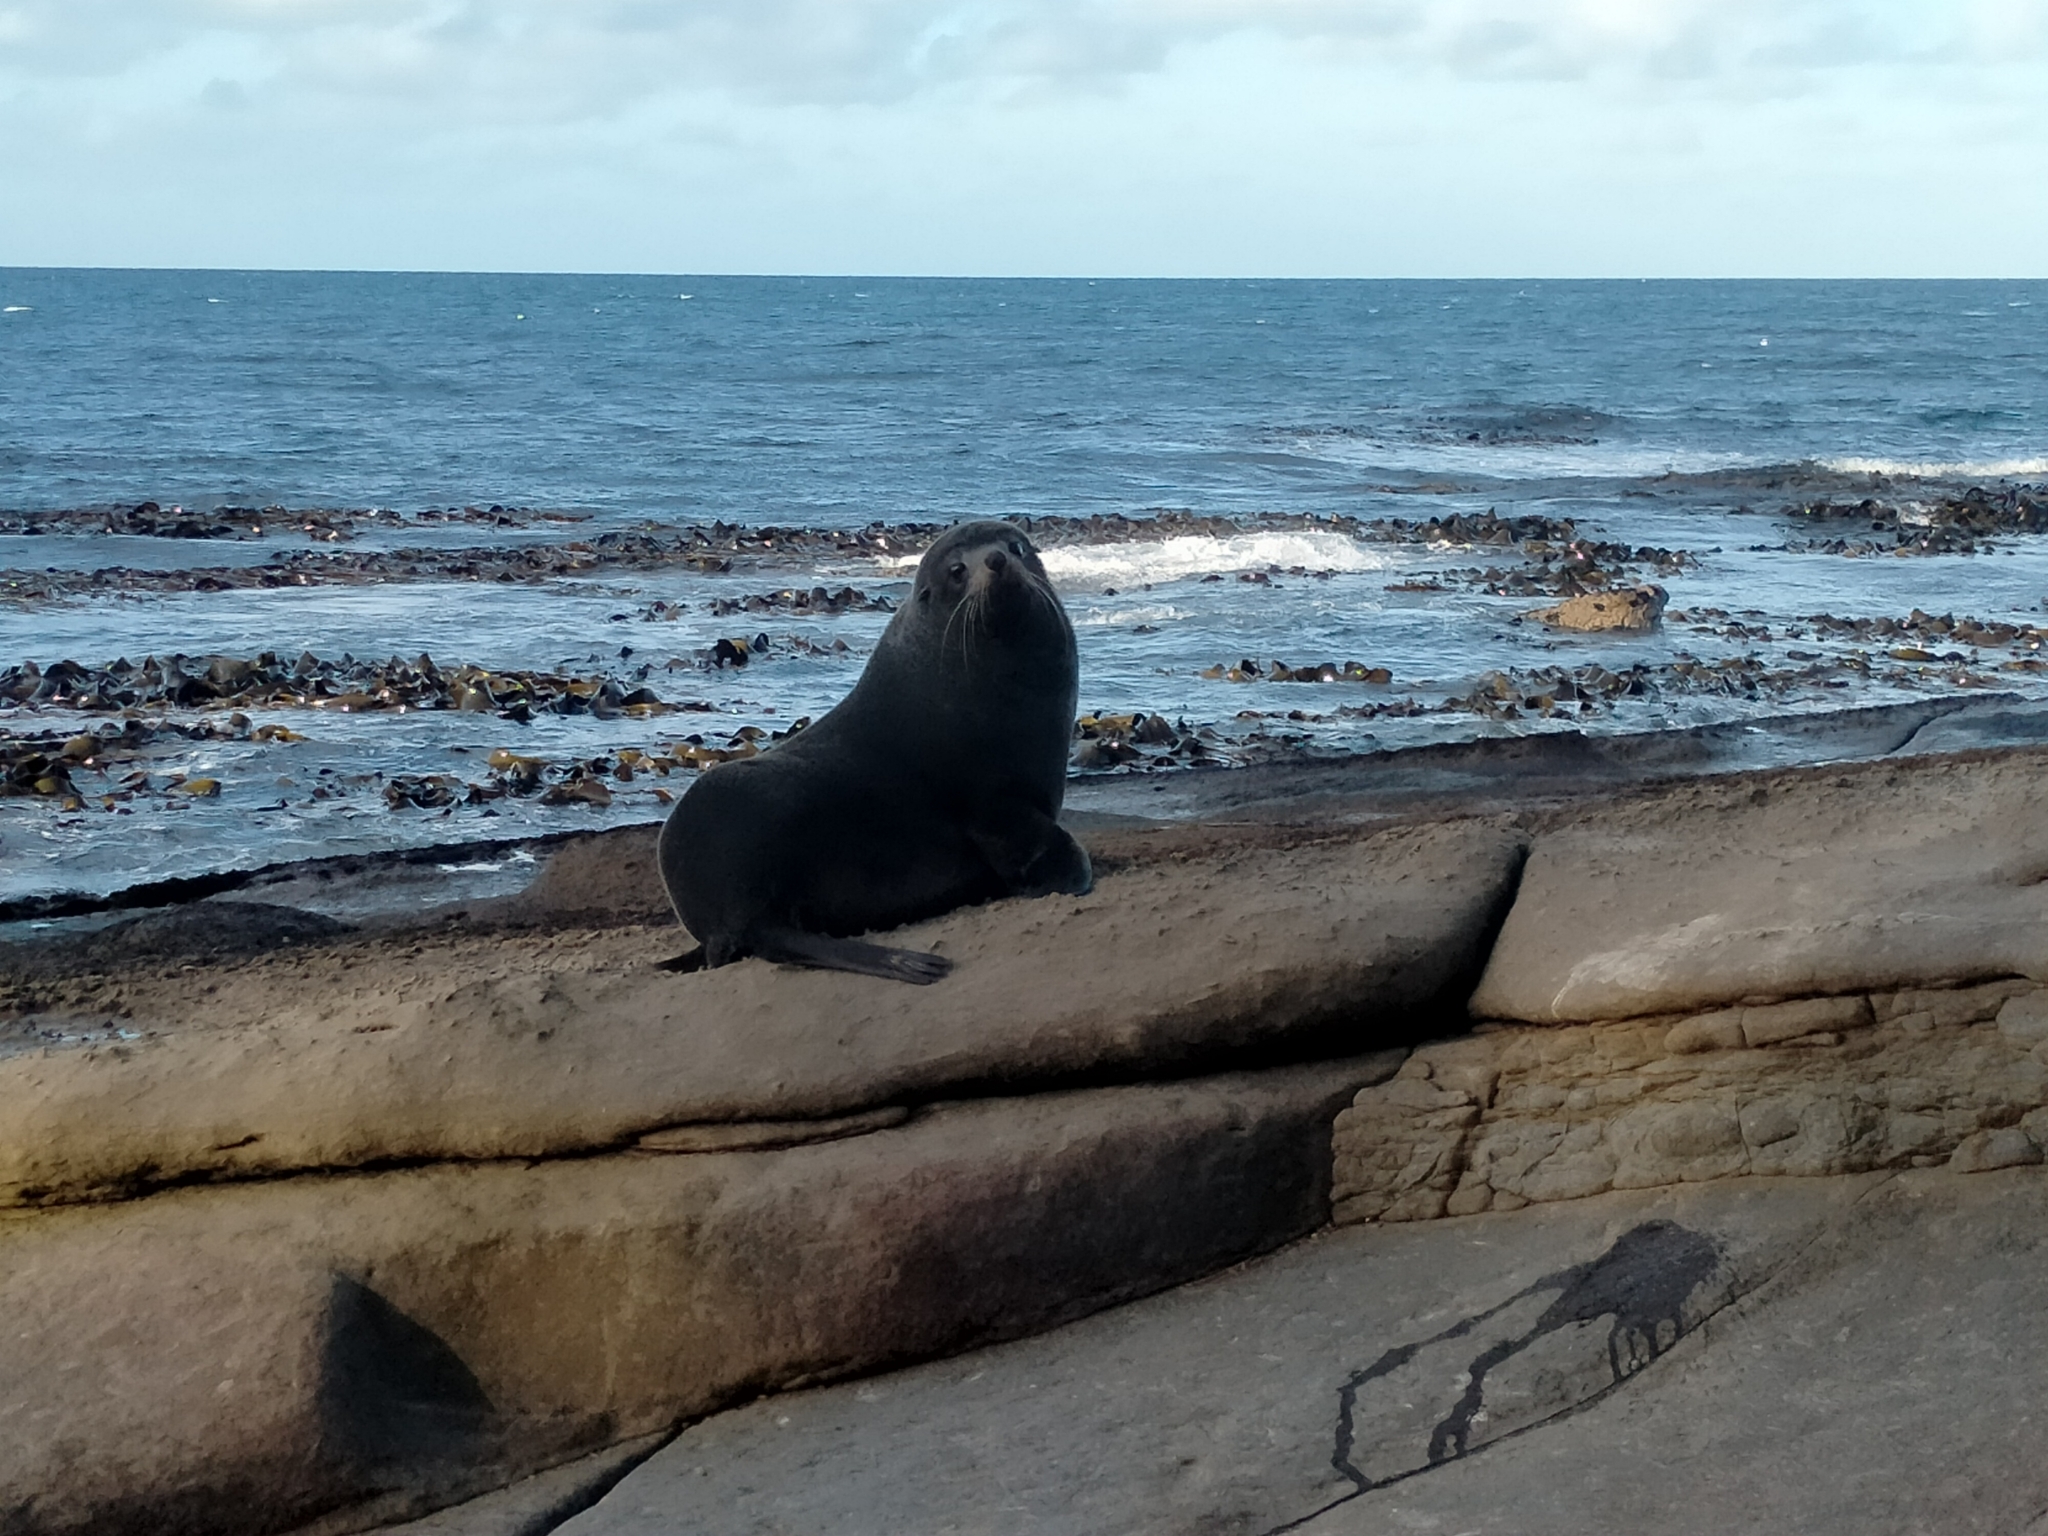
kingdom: Animalia
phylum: Chordata
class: Mammalia
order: Carnivora
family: Otariidae
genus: Arctocephalus
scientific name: Arctocephalus forsteri
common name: New zealand fur seal
